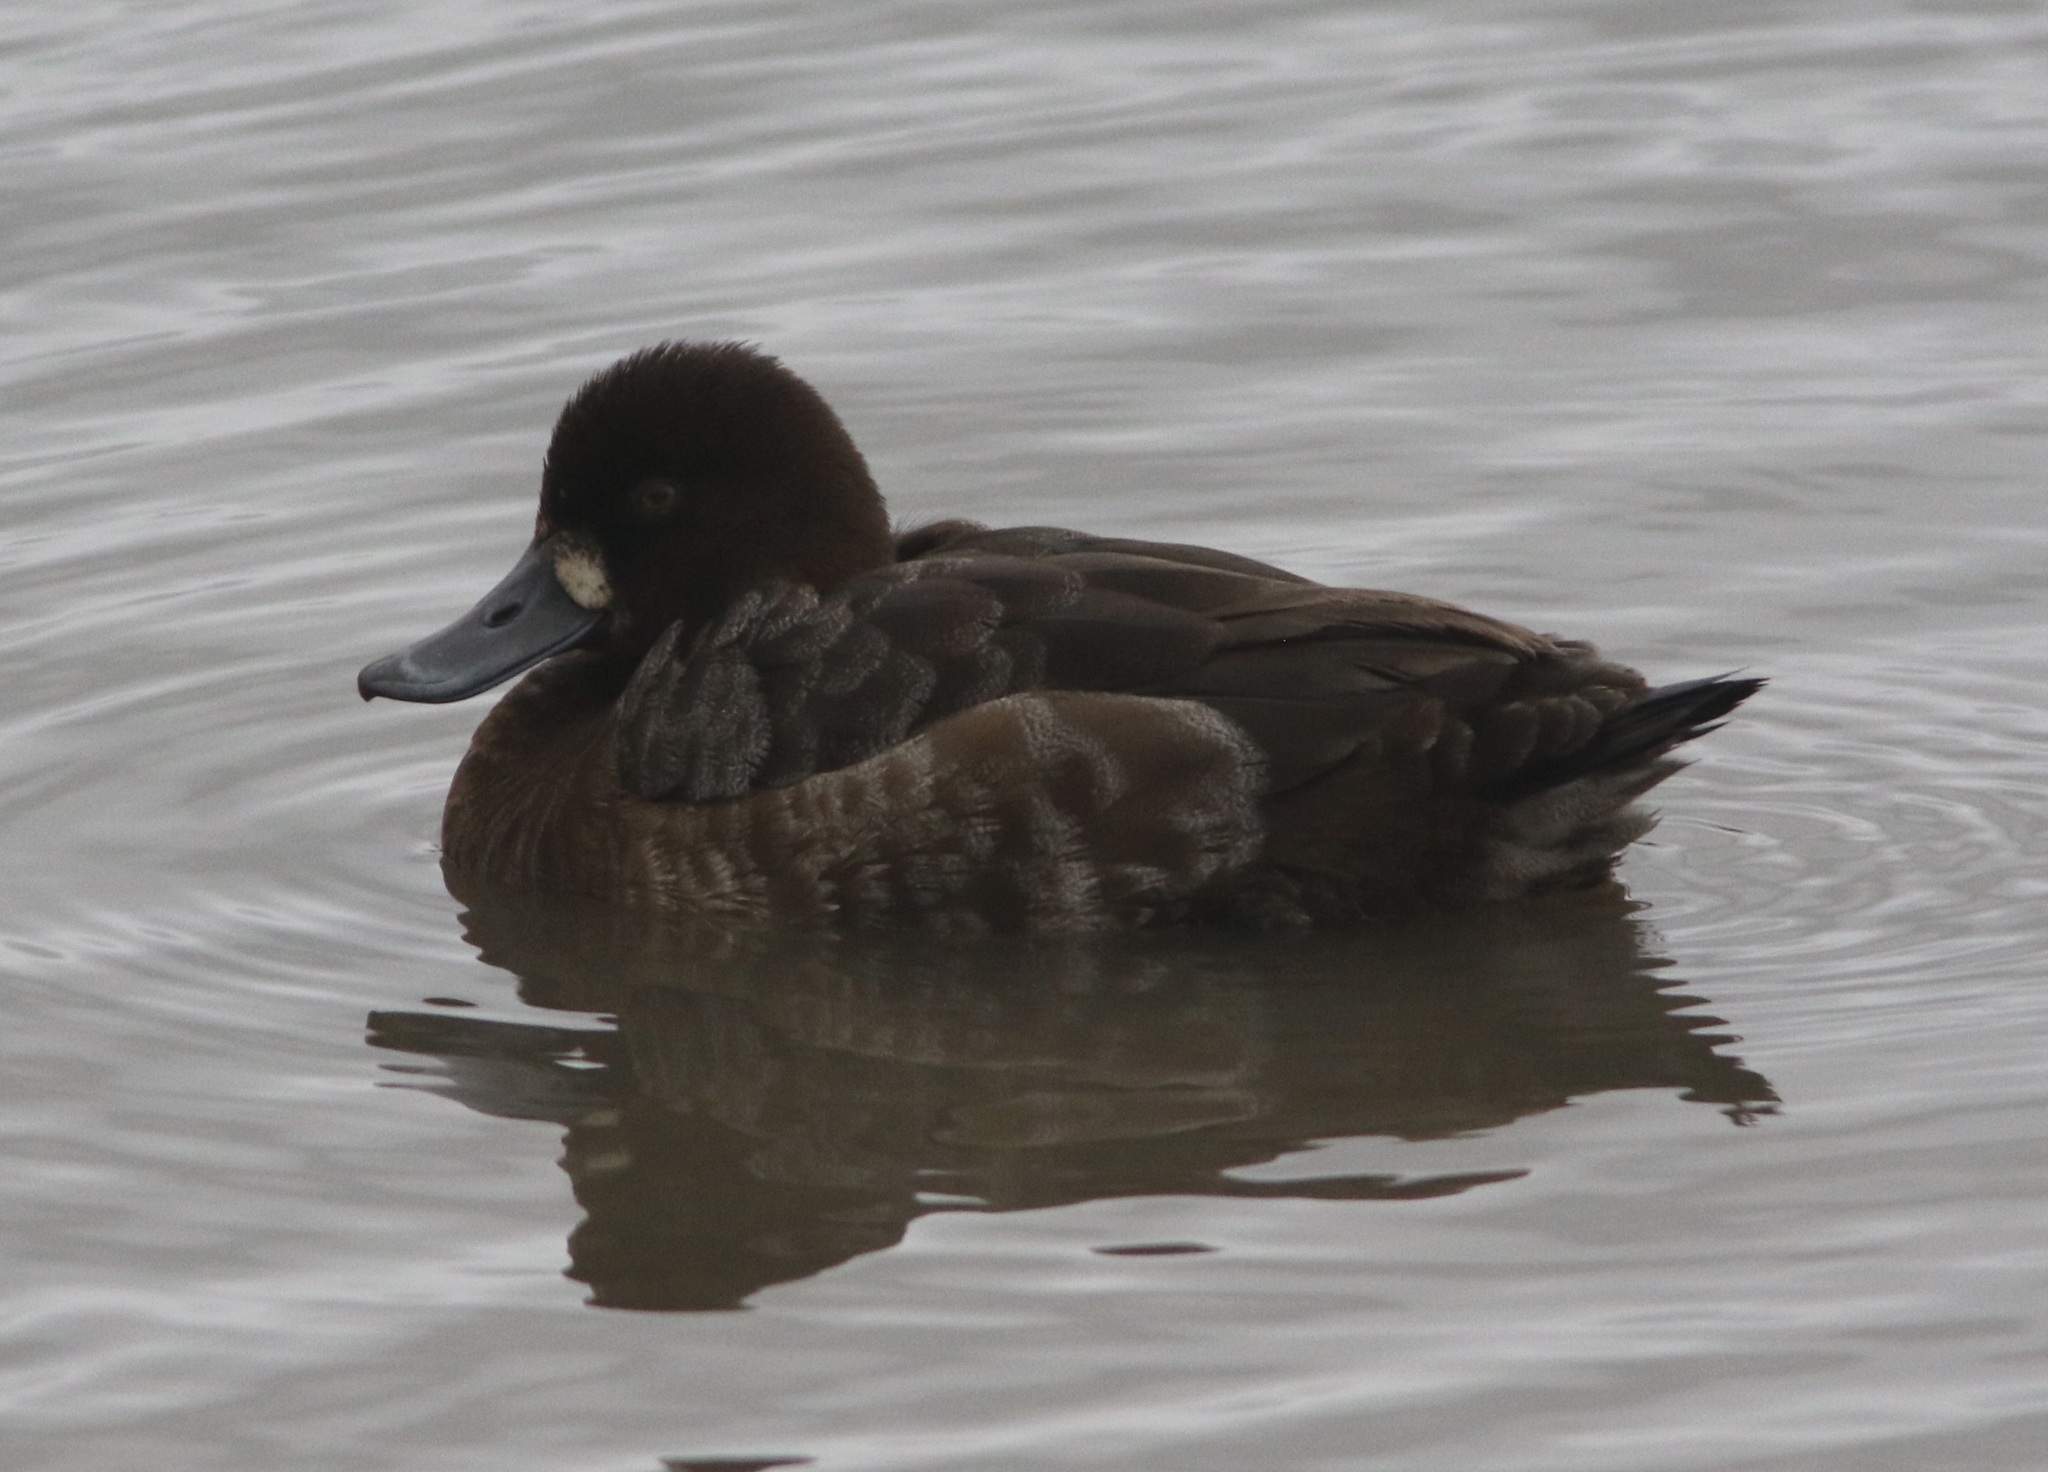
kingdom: Animalia
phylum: Chordata
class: Aves
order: Anseriformes
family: Anatidae
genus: Aythya
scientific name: Aythya affinis
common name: Lesser scaup
